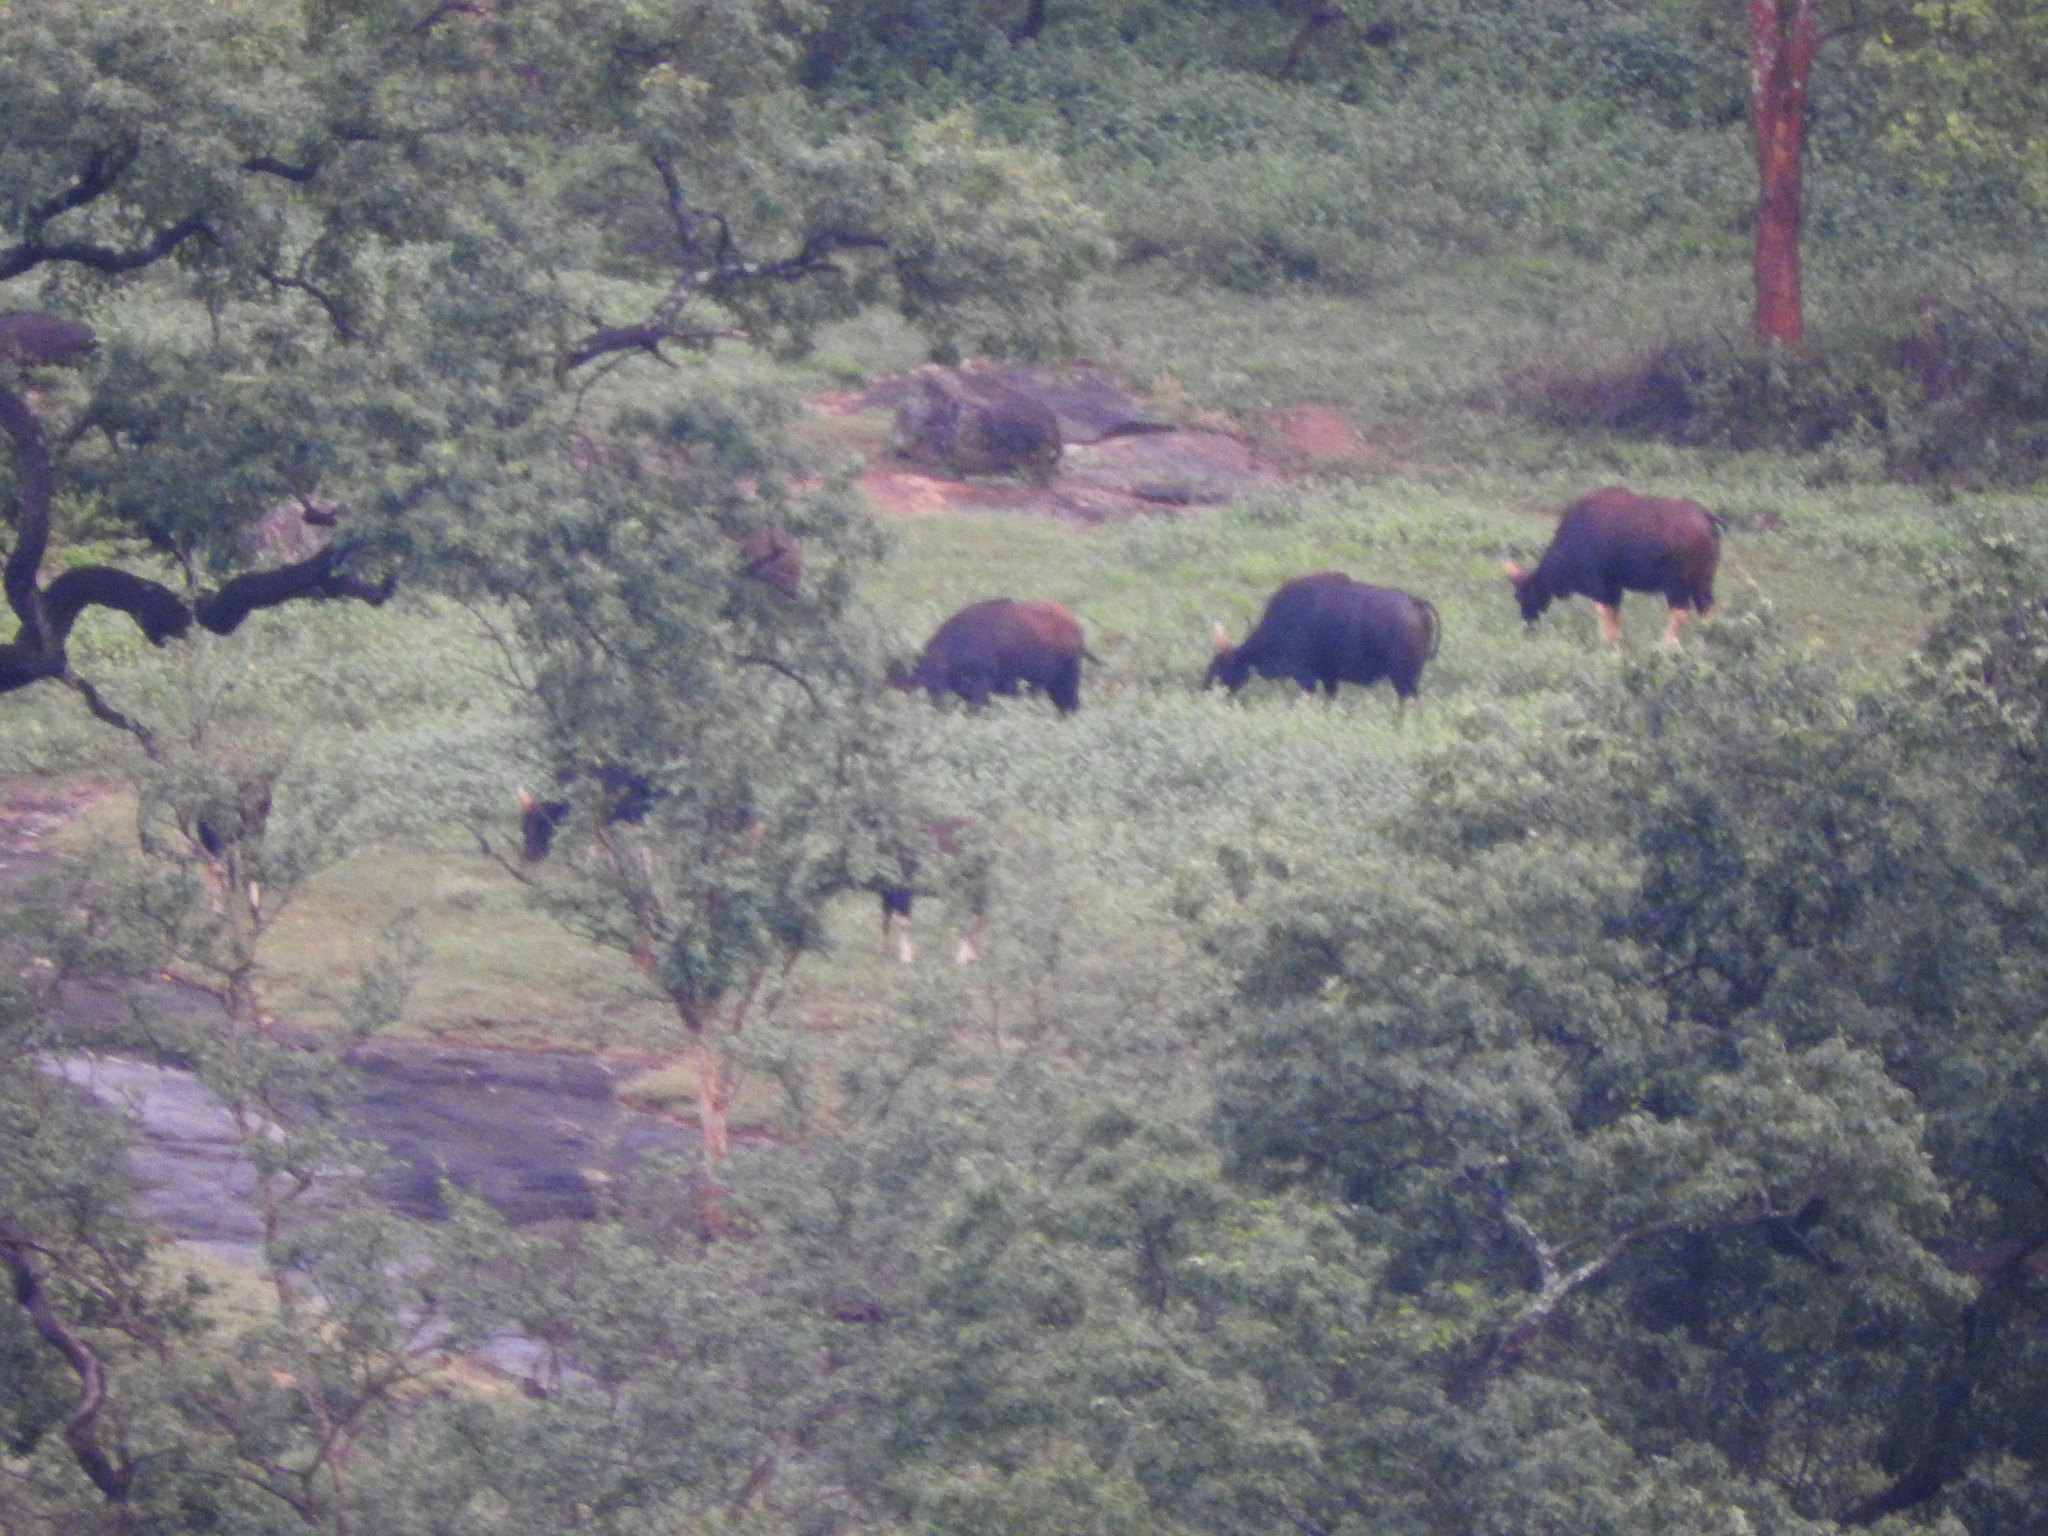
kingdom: Animalia
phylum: Chordata
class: Mammalia
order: Artiodactyla
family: Bovidae
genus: Bos
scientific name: Bos frontalis
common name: Gaur
